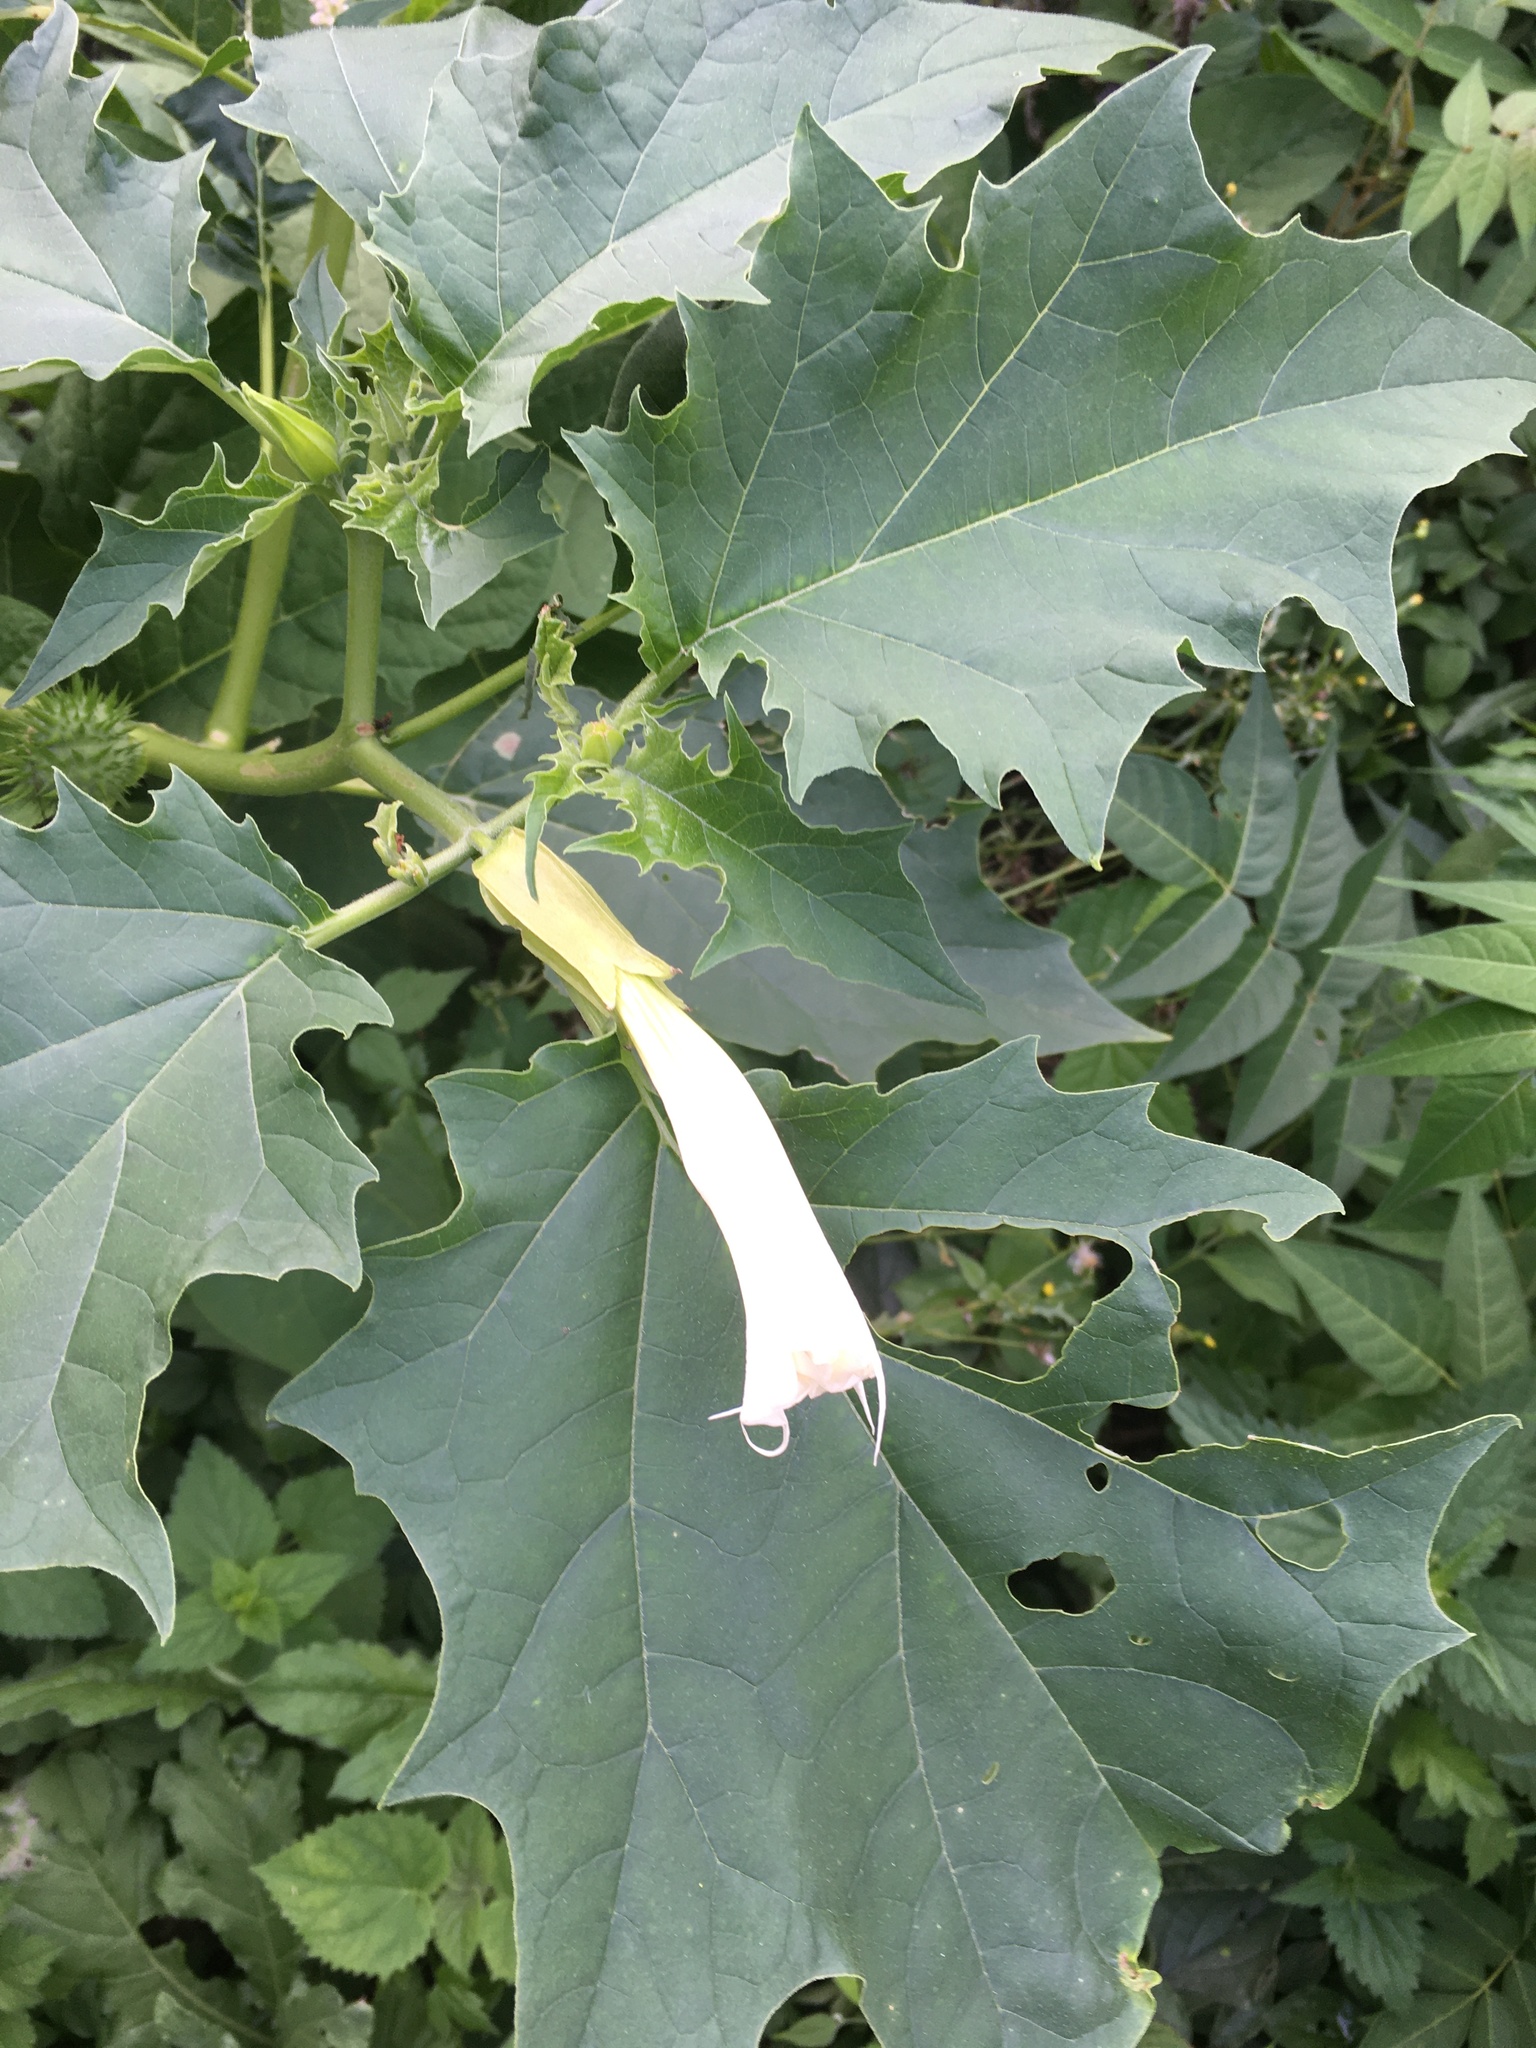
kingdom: Plantae
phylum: Tracheophyta
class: Magnoliopsida
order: Solanales
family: Solanaceae
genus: Datura
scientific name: Datura stramonium
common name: Thorn-apple
